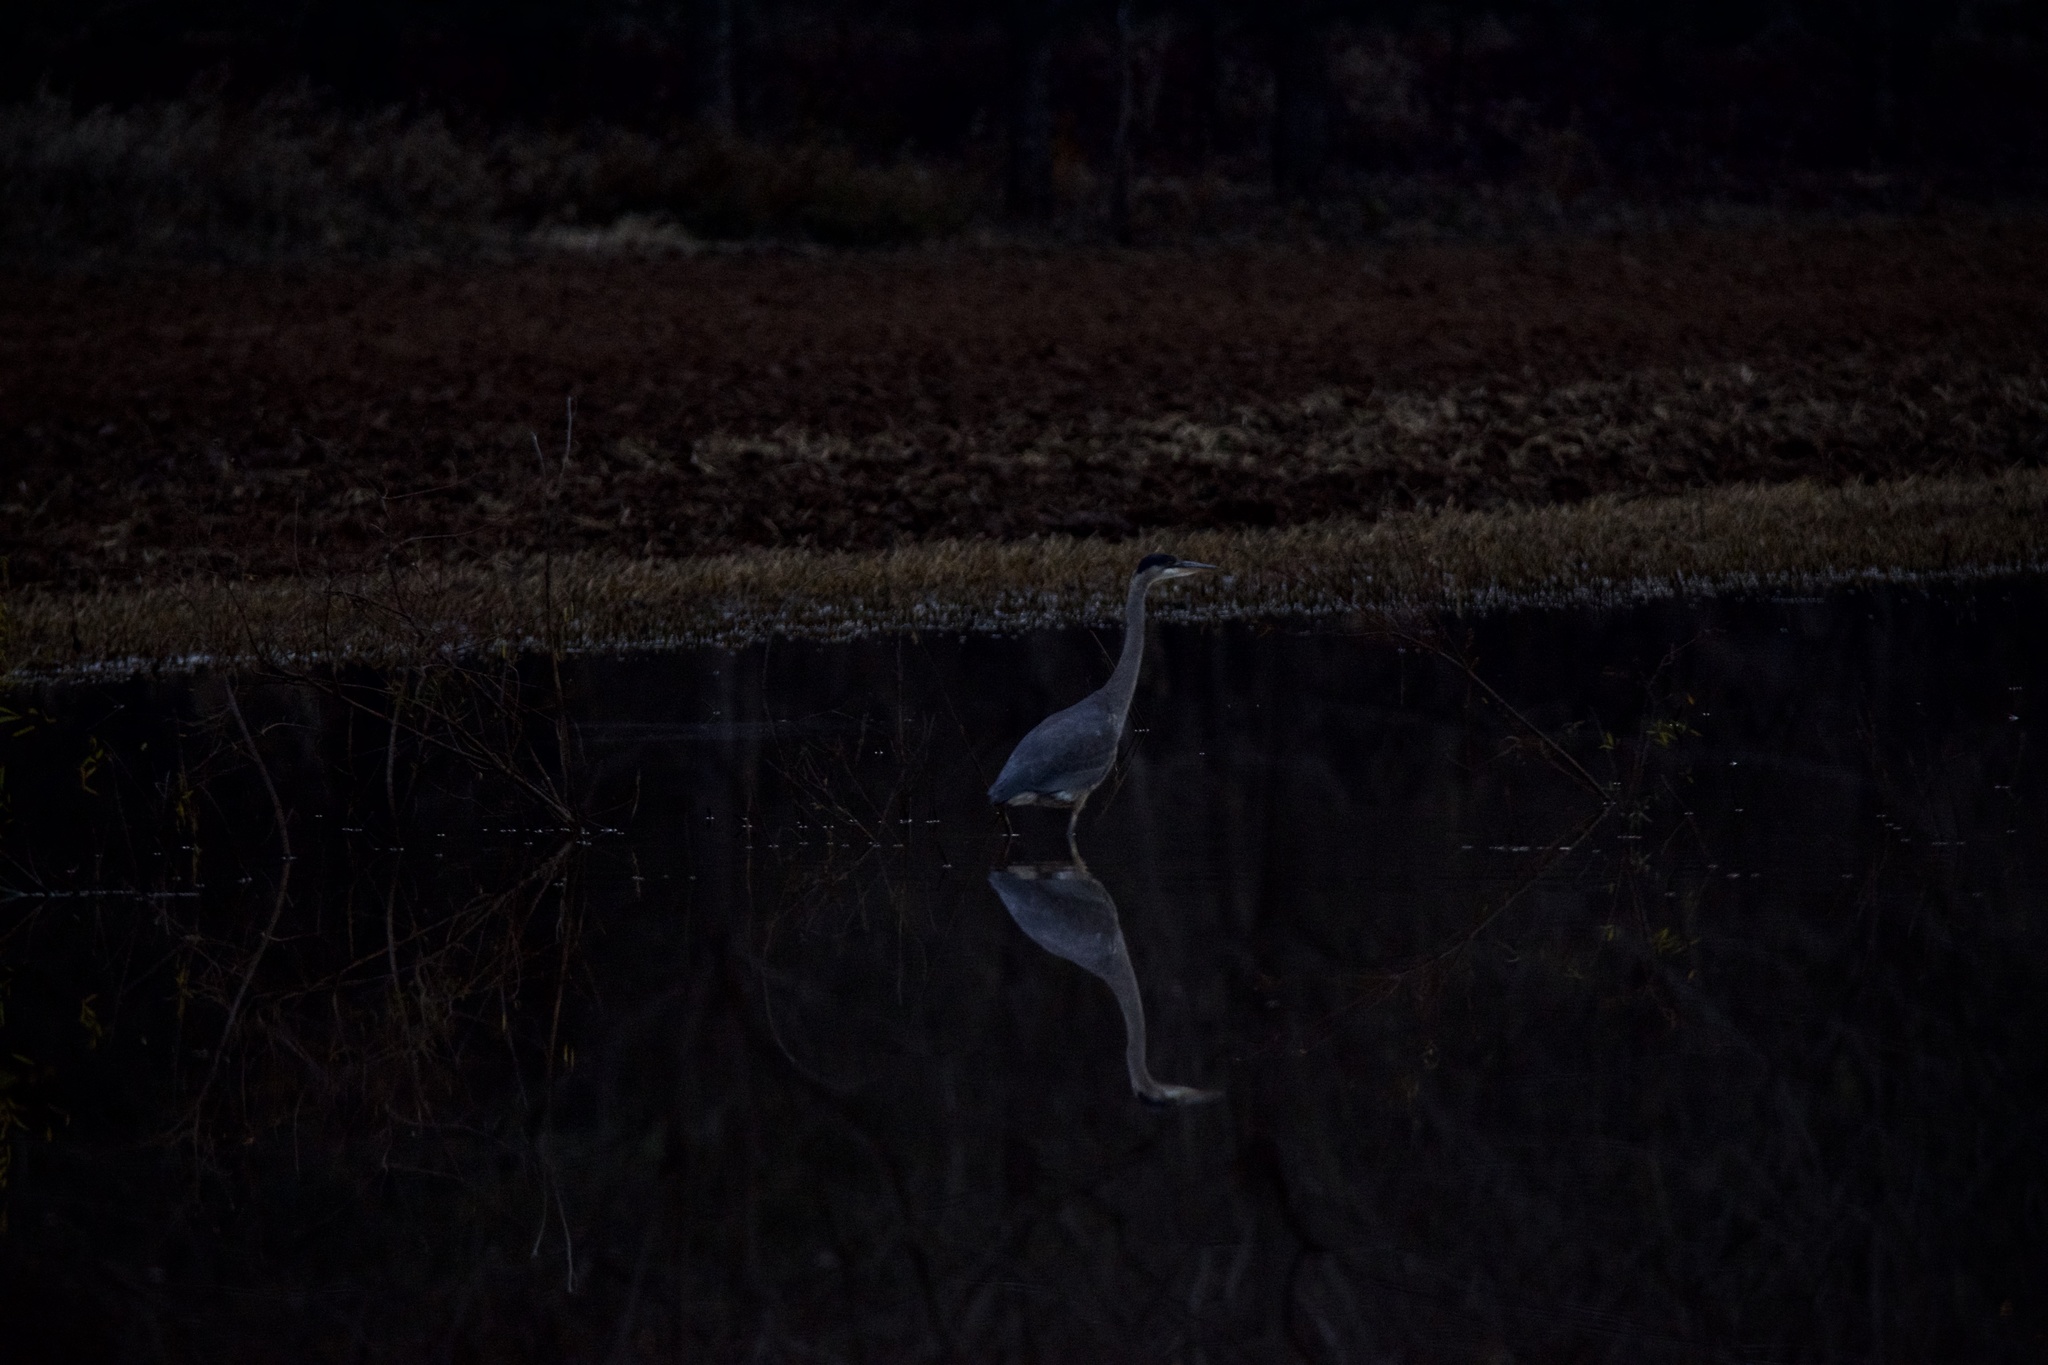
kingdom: Animalia
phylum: Chordata
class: Aves
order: Pelecaniformes
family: Ardeidae
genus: Ardea
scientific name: Ardea herodias
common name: Great blue heron
